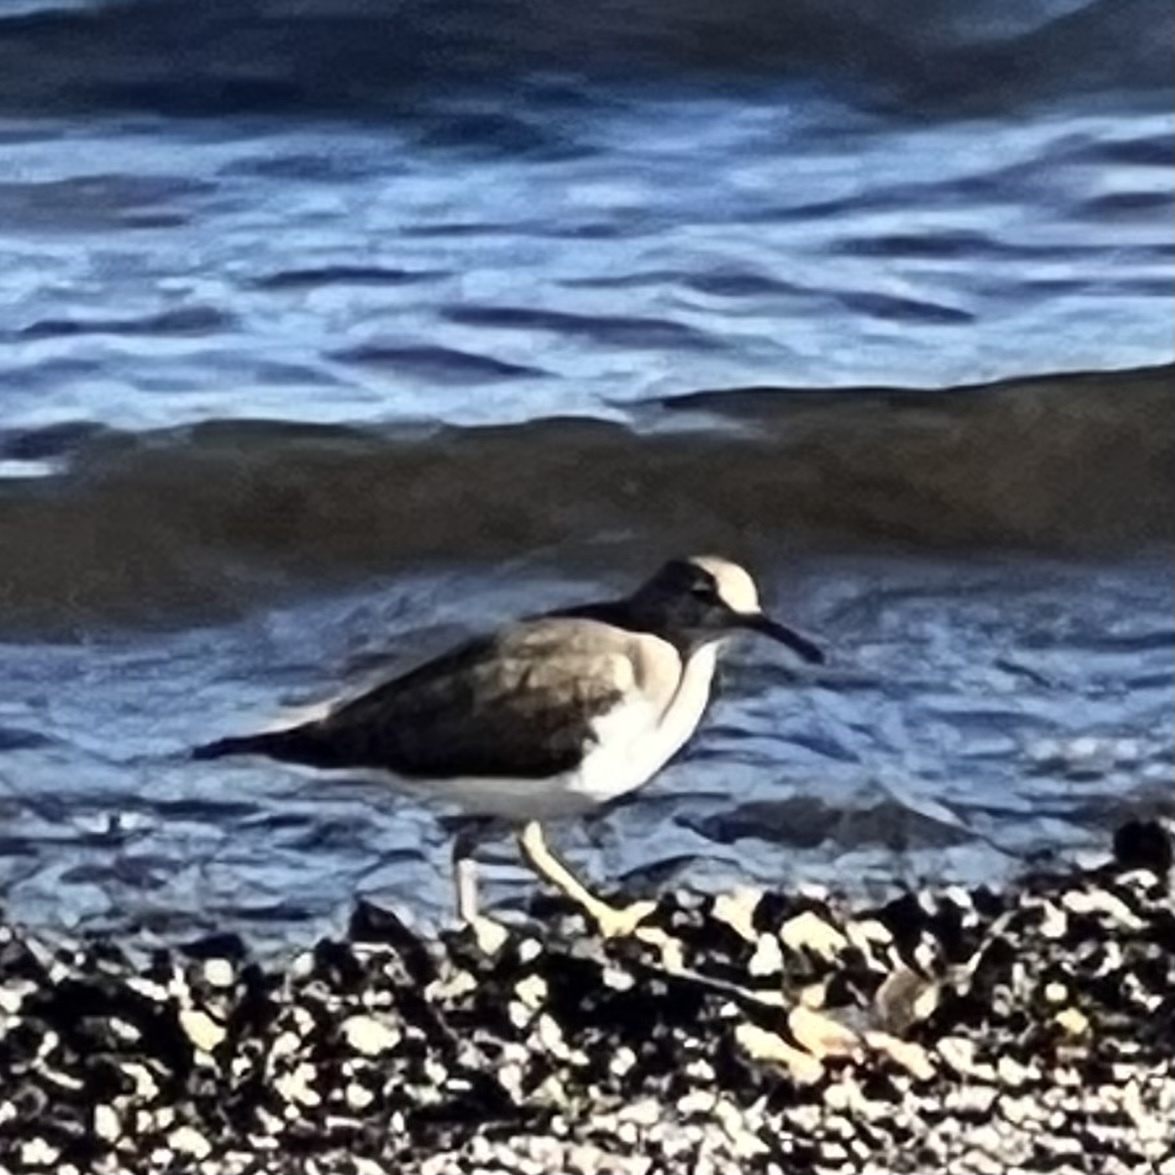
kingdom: Animalia
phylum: Chordata
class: Aves
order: Charadriiformes
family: Scolopacidae
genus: Actitis
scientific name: Actitis macularius
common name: Spotted sandpiper
